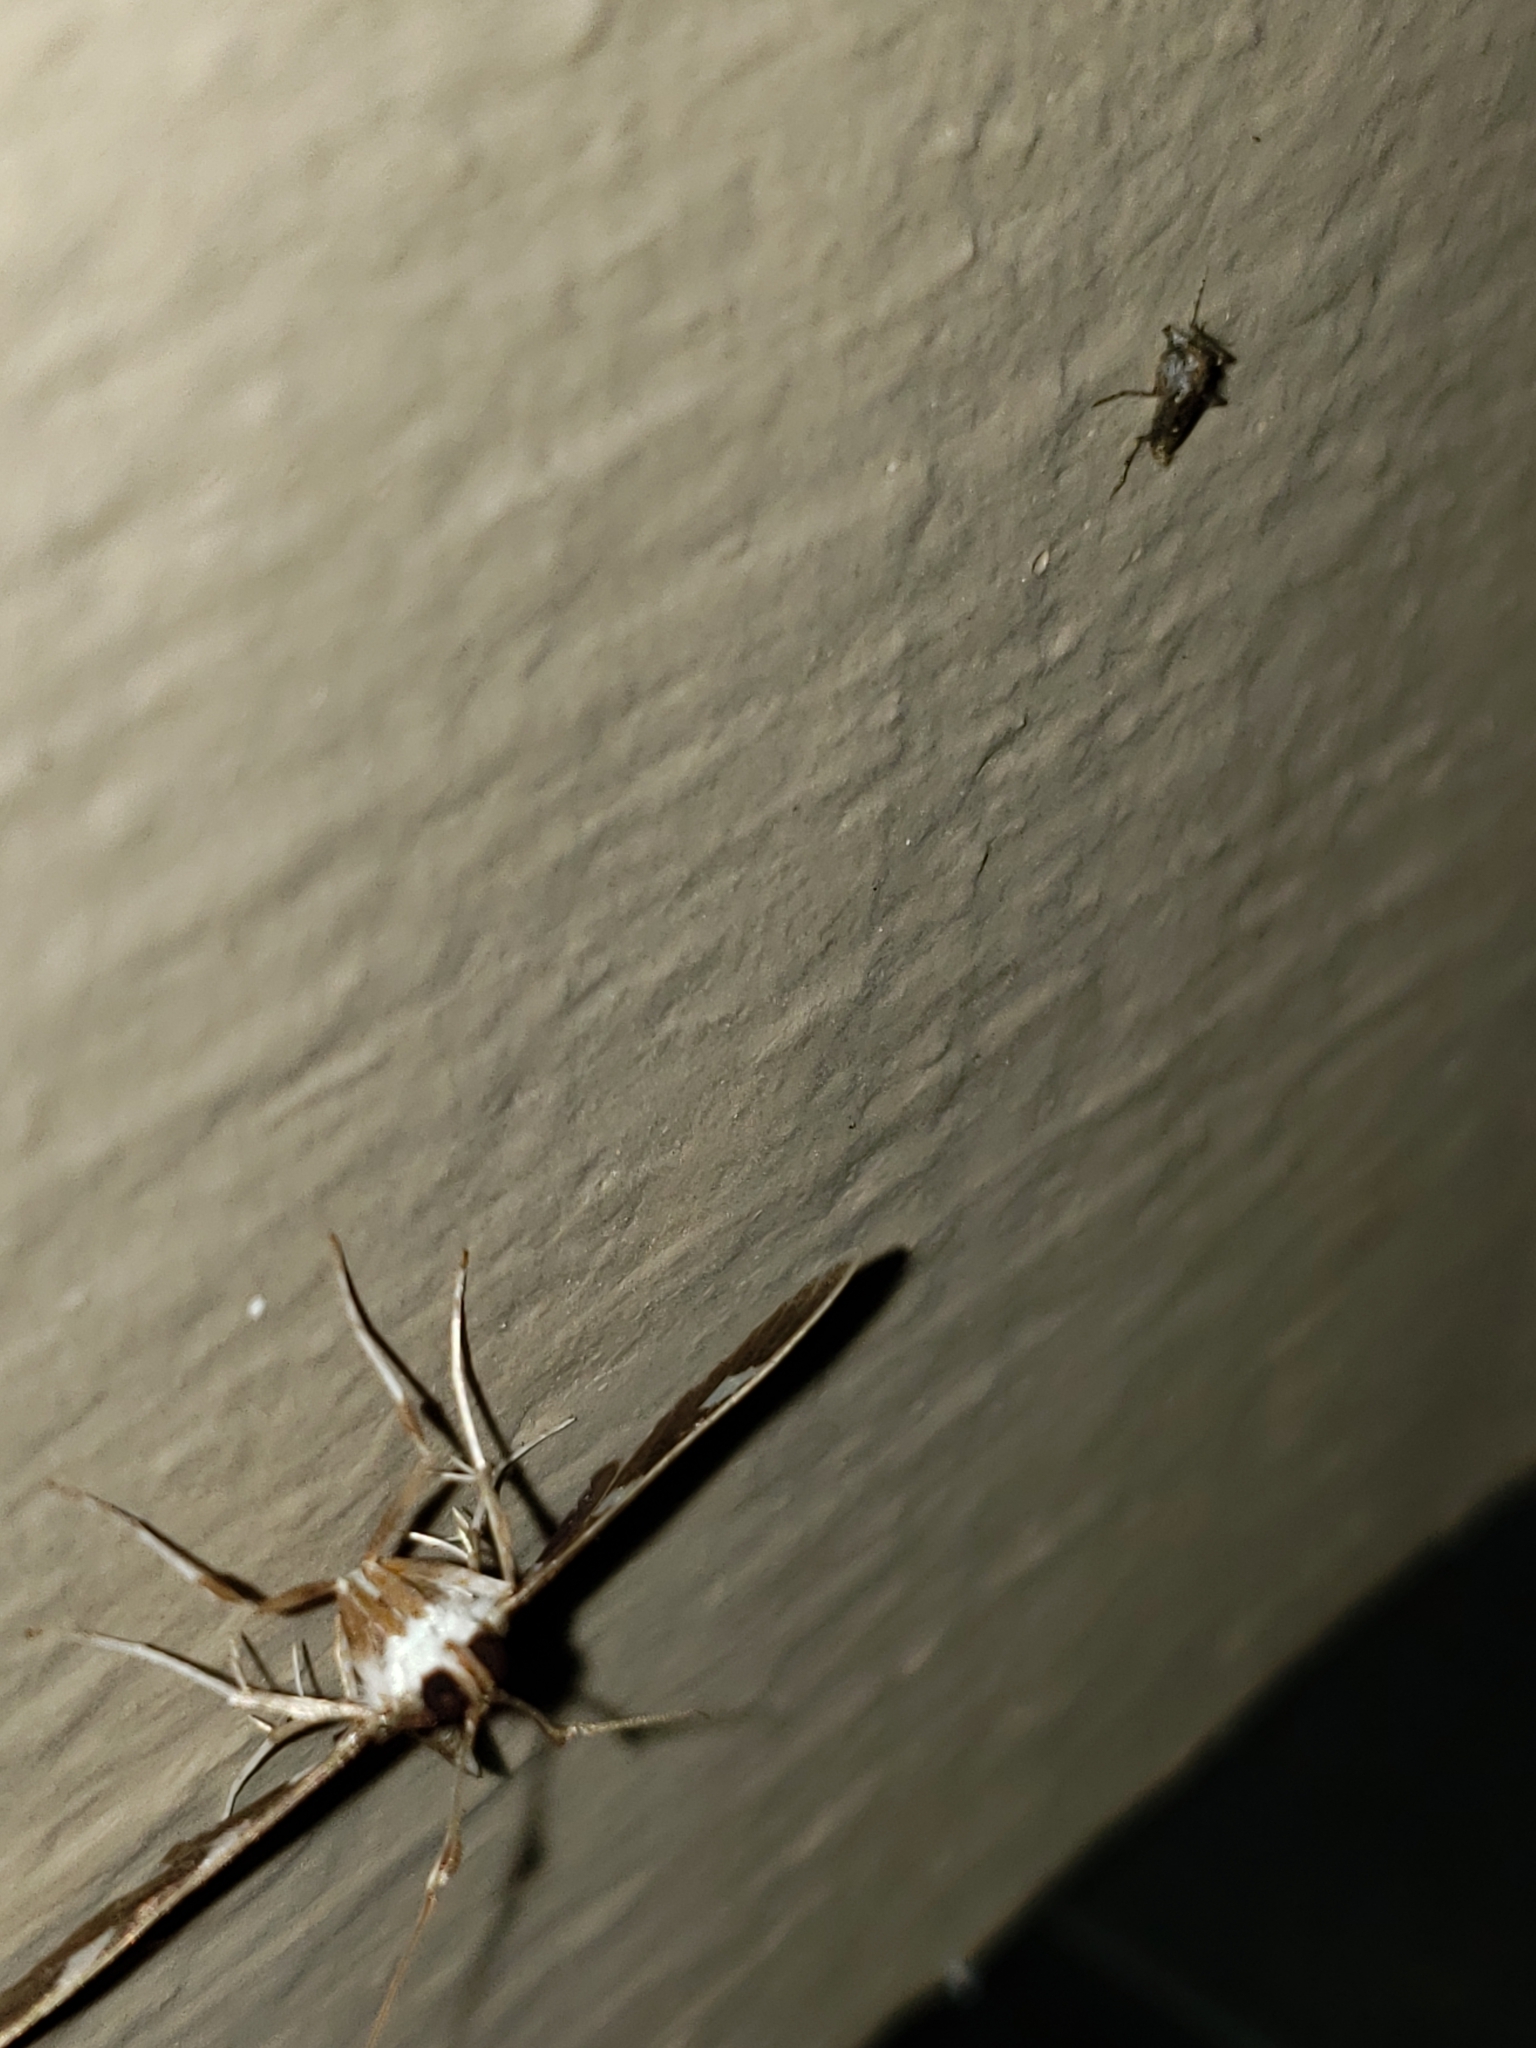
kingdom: Animalia
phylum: Arthropoda
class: Insecta
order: Lepidoptera
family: Crambidae
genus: Desmia
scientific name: Desmia
